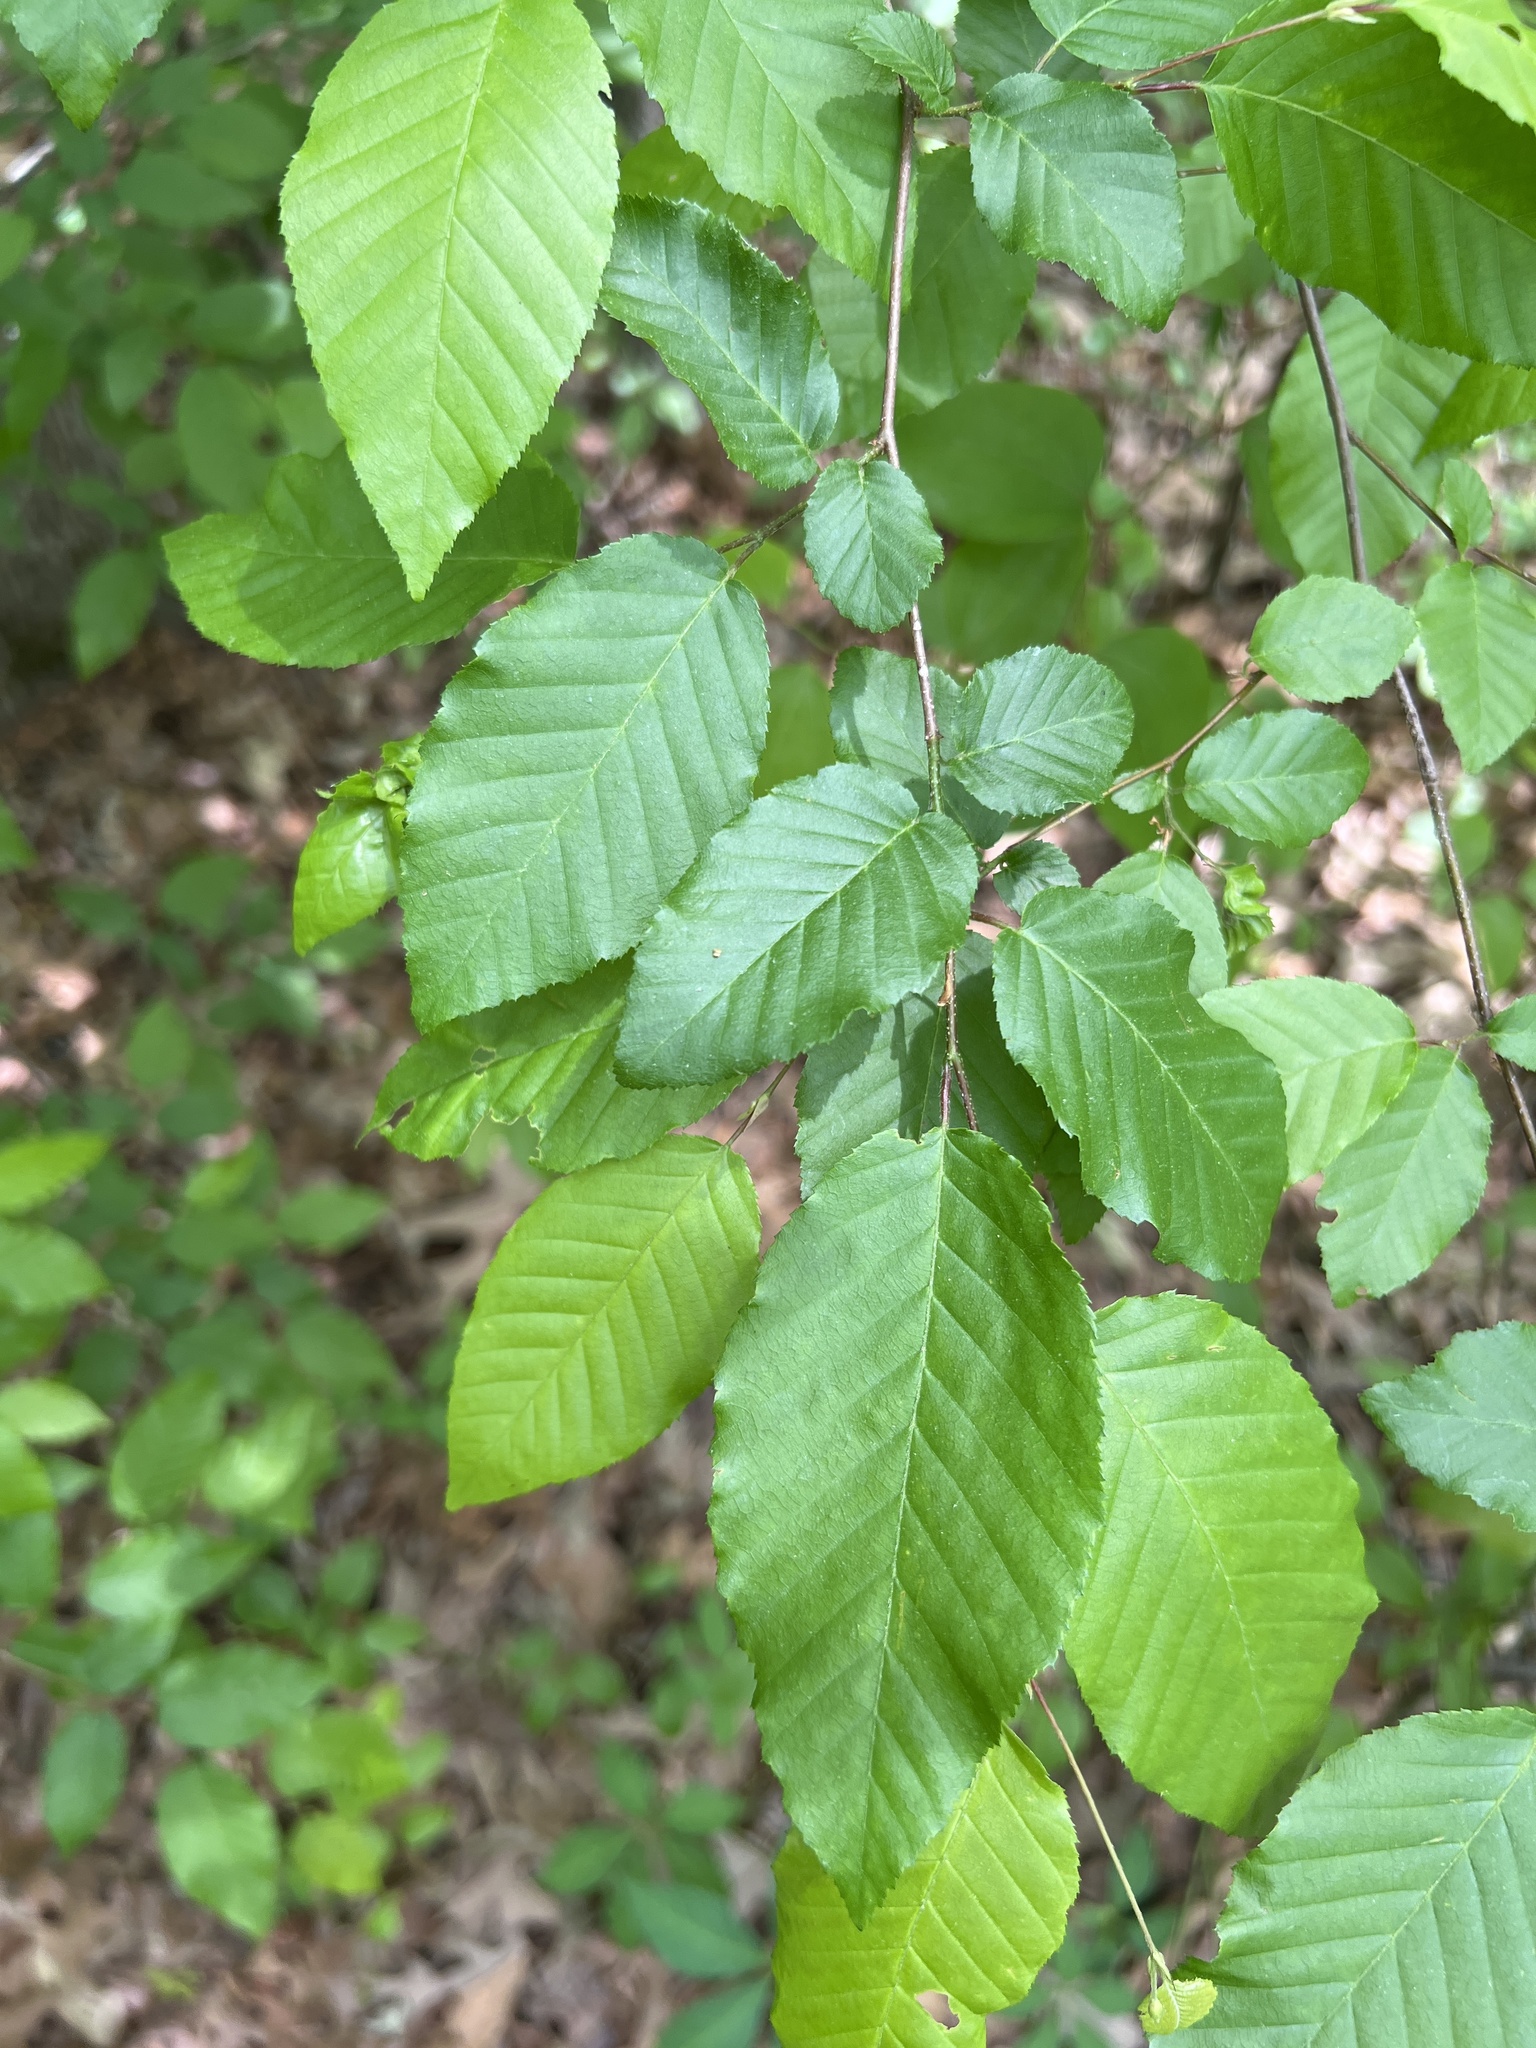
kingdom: Plantae
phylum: Tracheophyta
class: Magnoliopsida
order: Fagales
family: Betulaceae
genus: Carpinus
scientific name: Carpinus caroliniana
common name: American hornbeam
